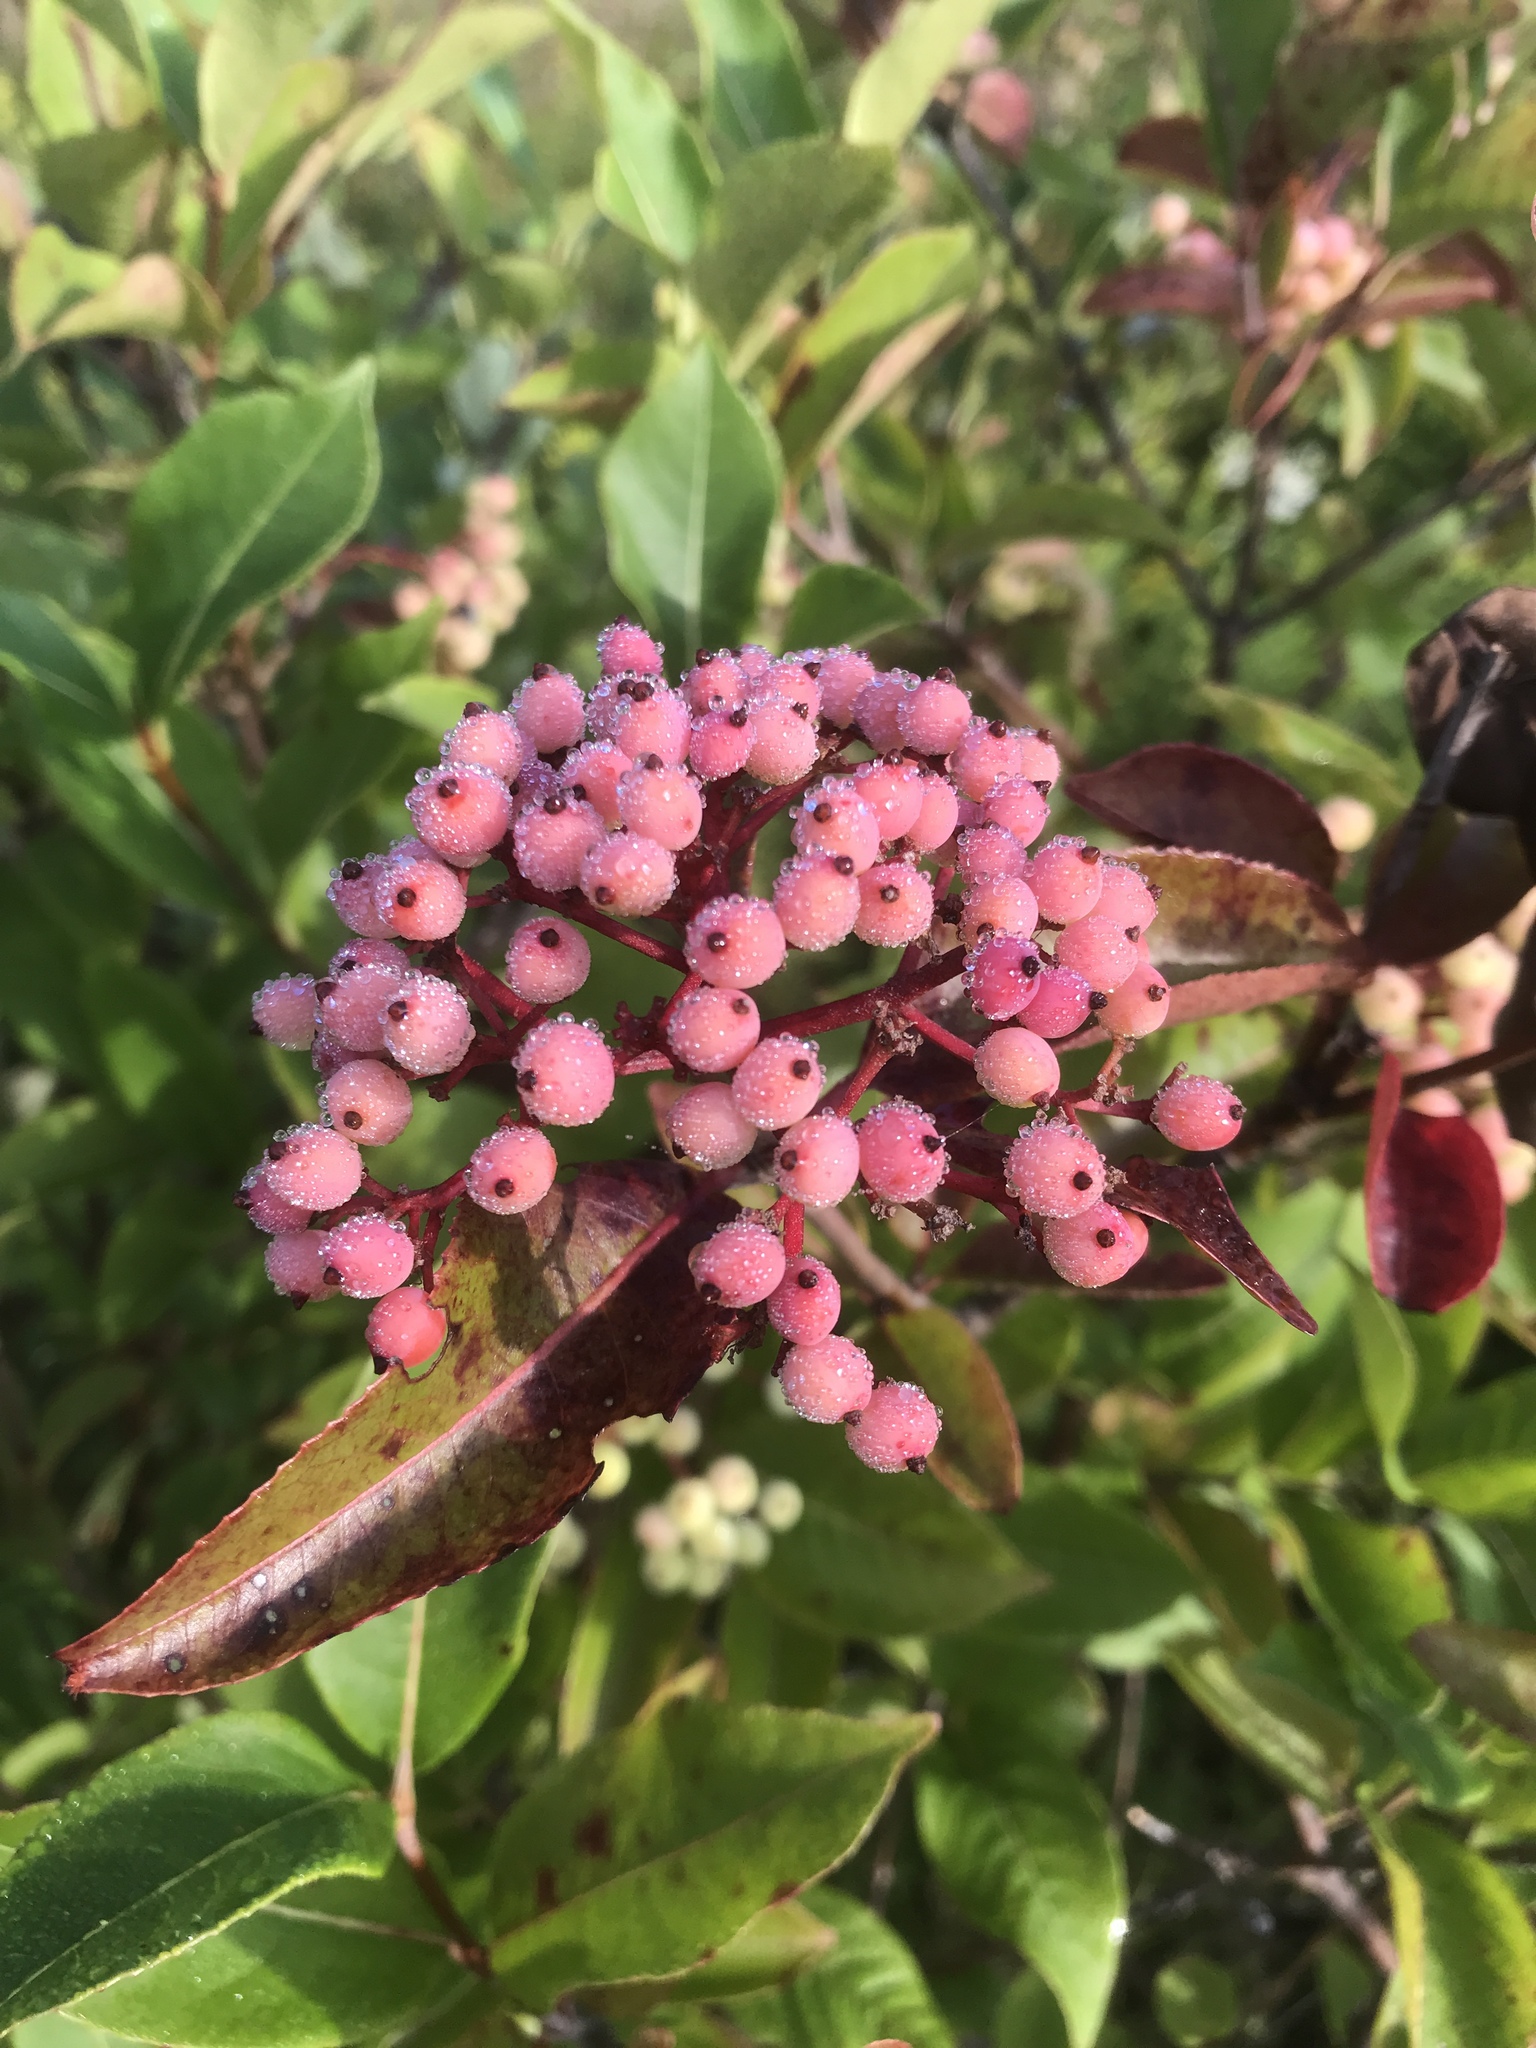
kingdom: Plantae
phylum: Tracheophyta
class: Magnoliopsida
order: Dipsacales
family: Viburnaceae
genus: Viburnum
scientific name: Viburnum cassinoides
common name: Swamp haw
